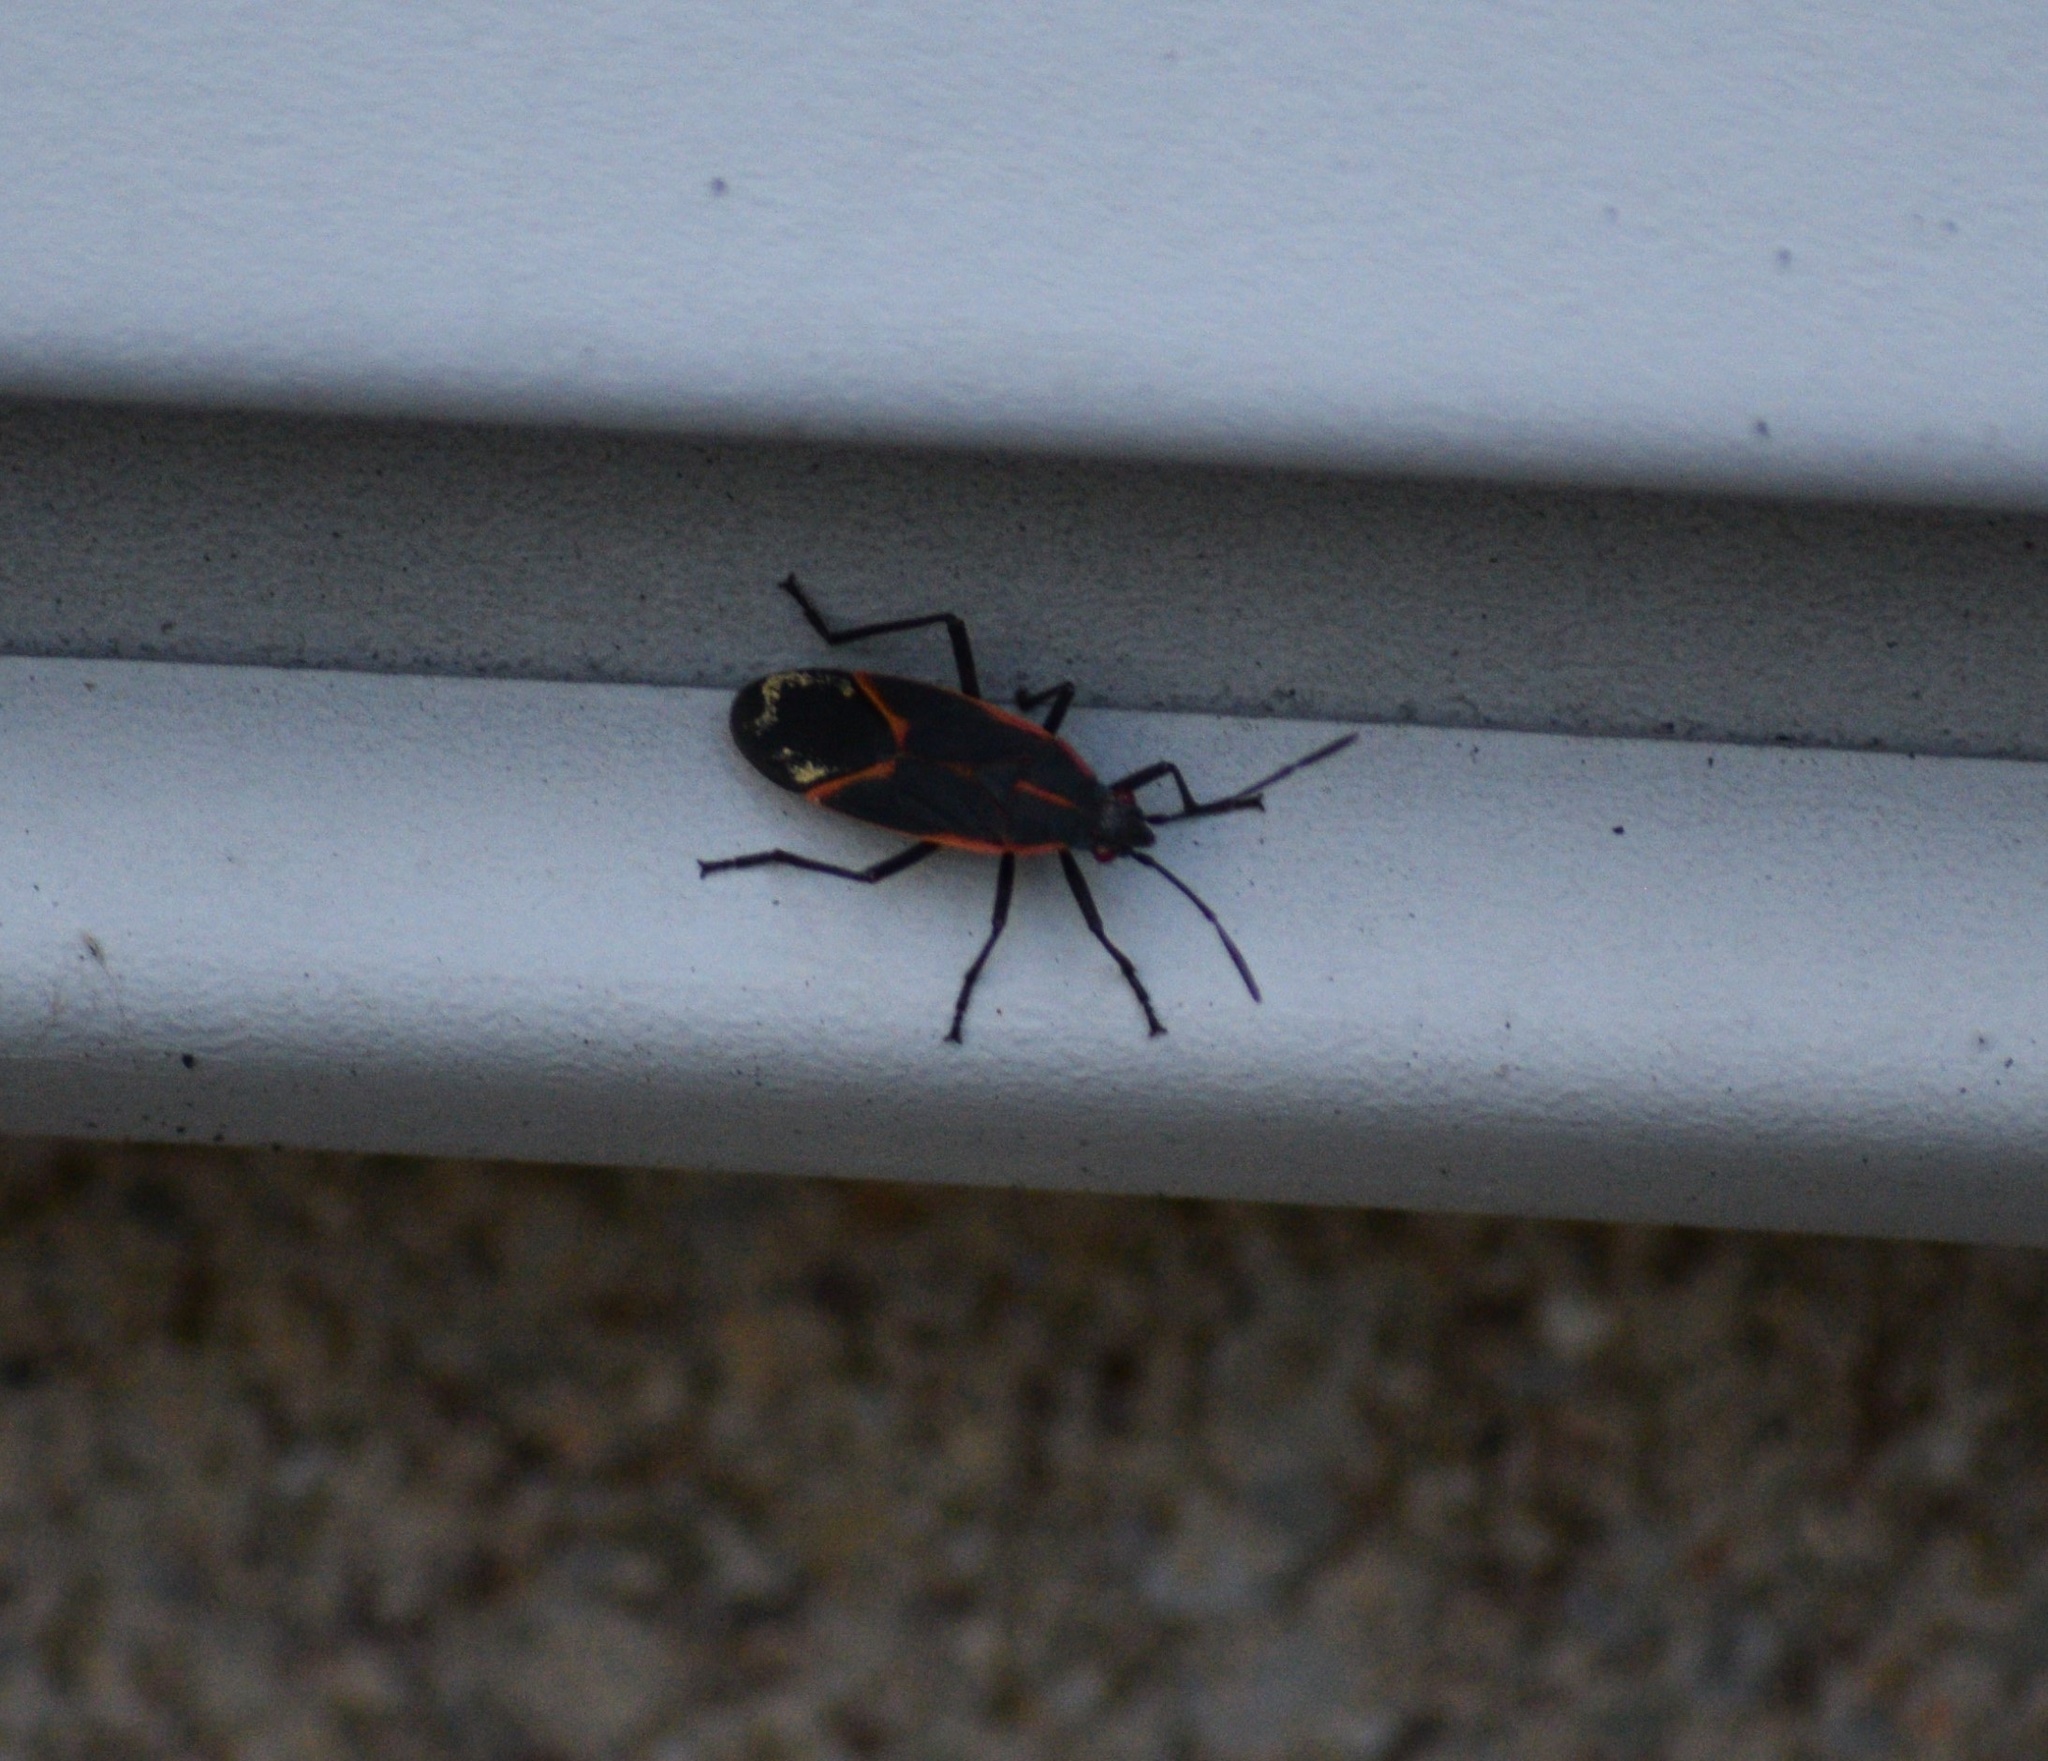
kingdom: Animalia
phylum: Arthropoda
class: Insecta
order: Hemiptera
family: Rhopalidae
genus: Boisea
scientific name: Boisea trivittata
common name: Boxelder bug
